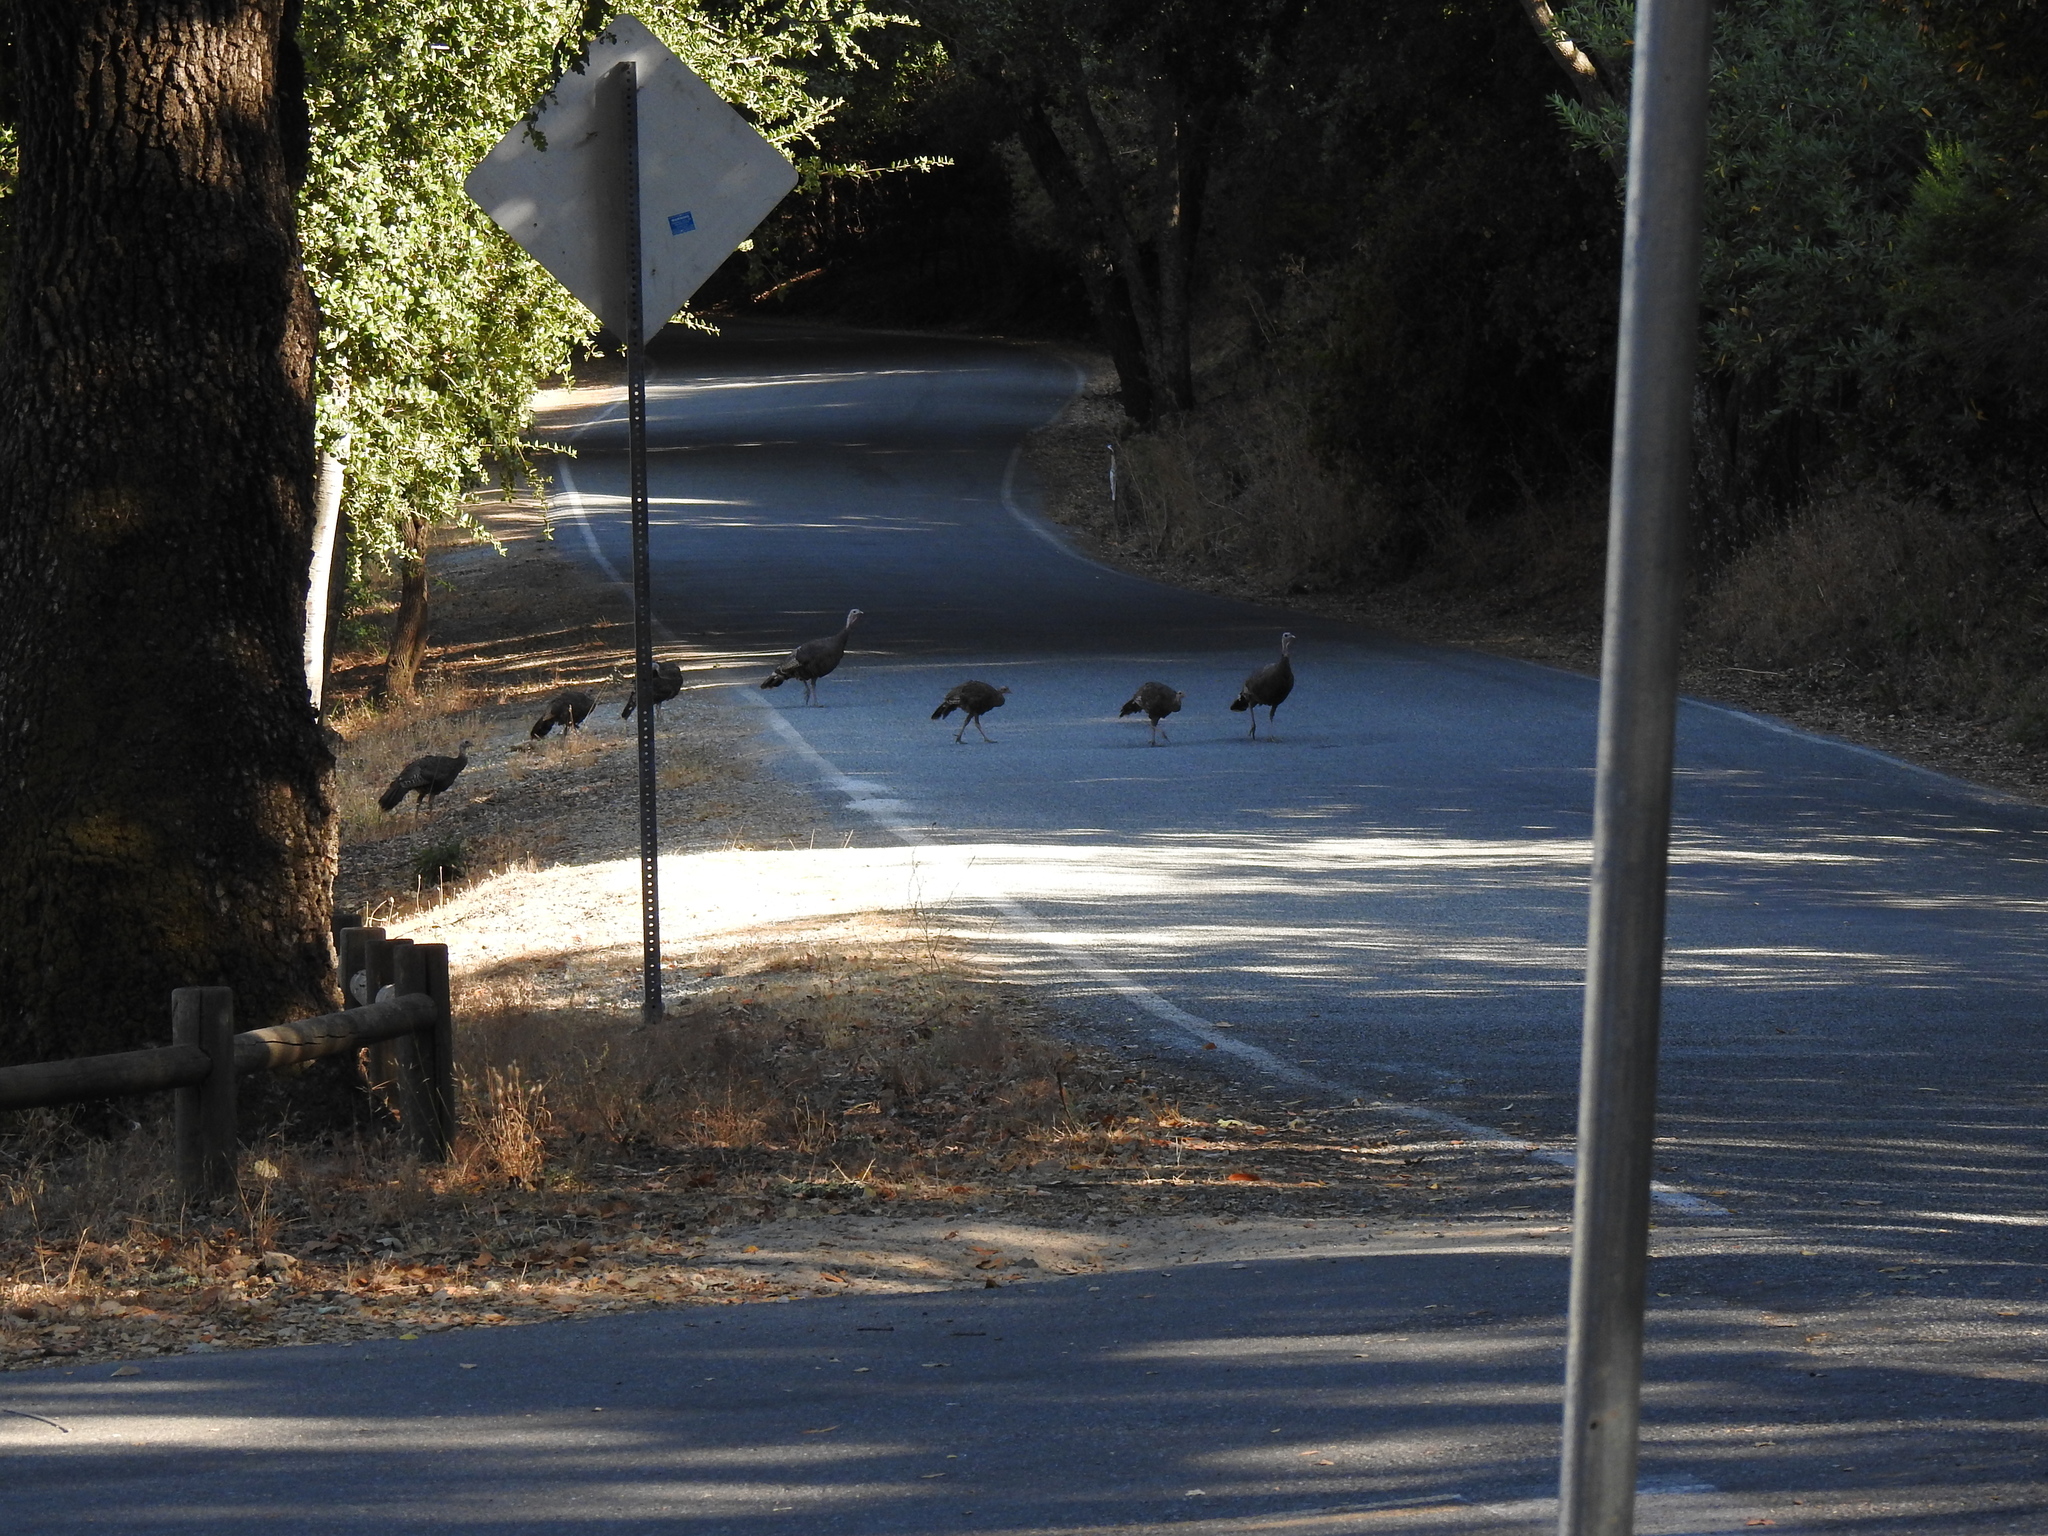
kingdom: Animalia
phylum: Chordata
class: Aves
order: Galliformes
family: Phasianidae
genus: Meleagris
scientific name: Meleagris gallopavo
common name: Wild turkey
